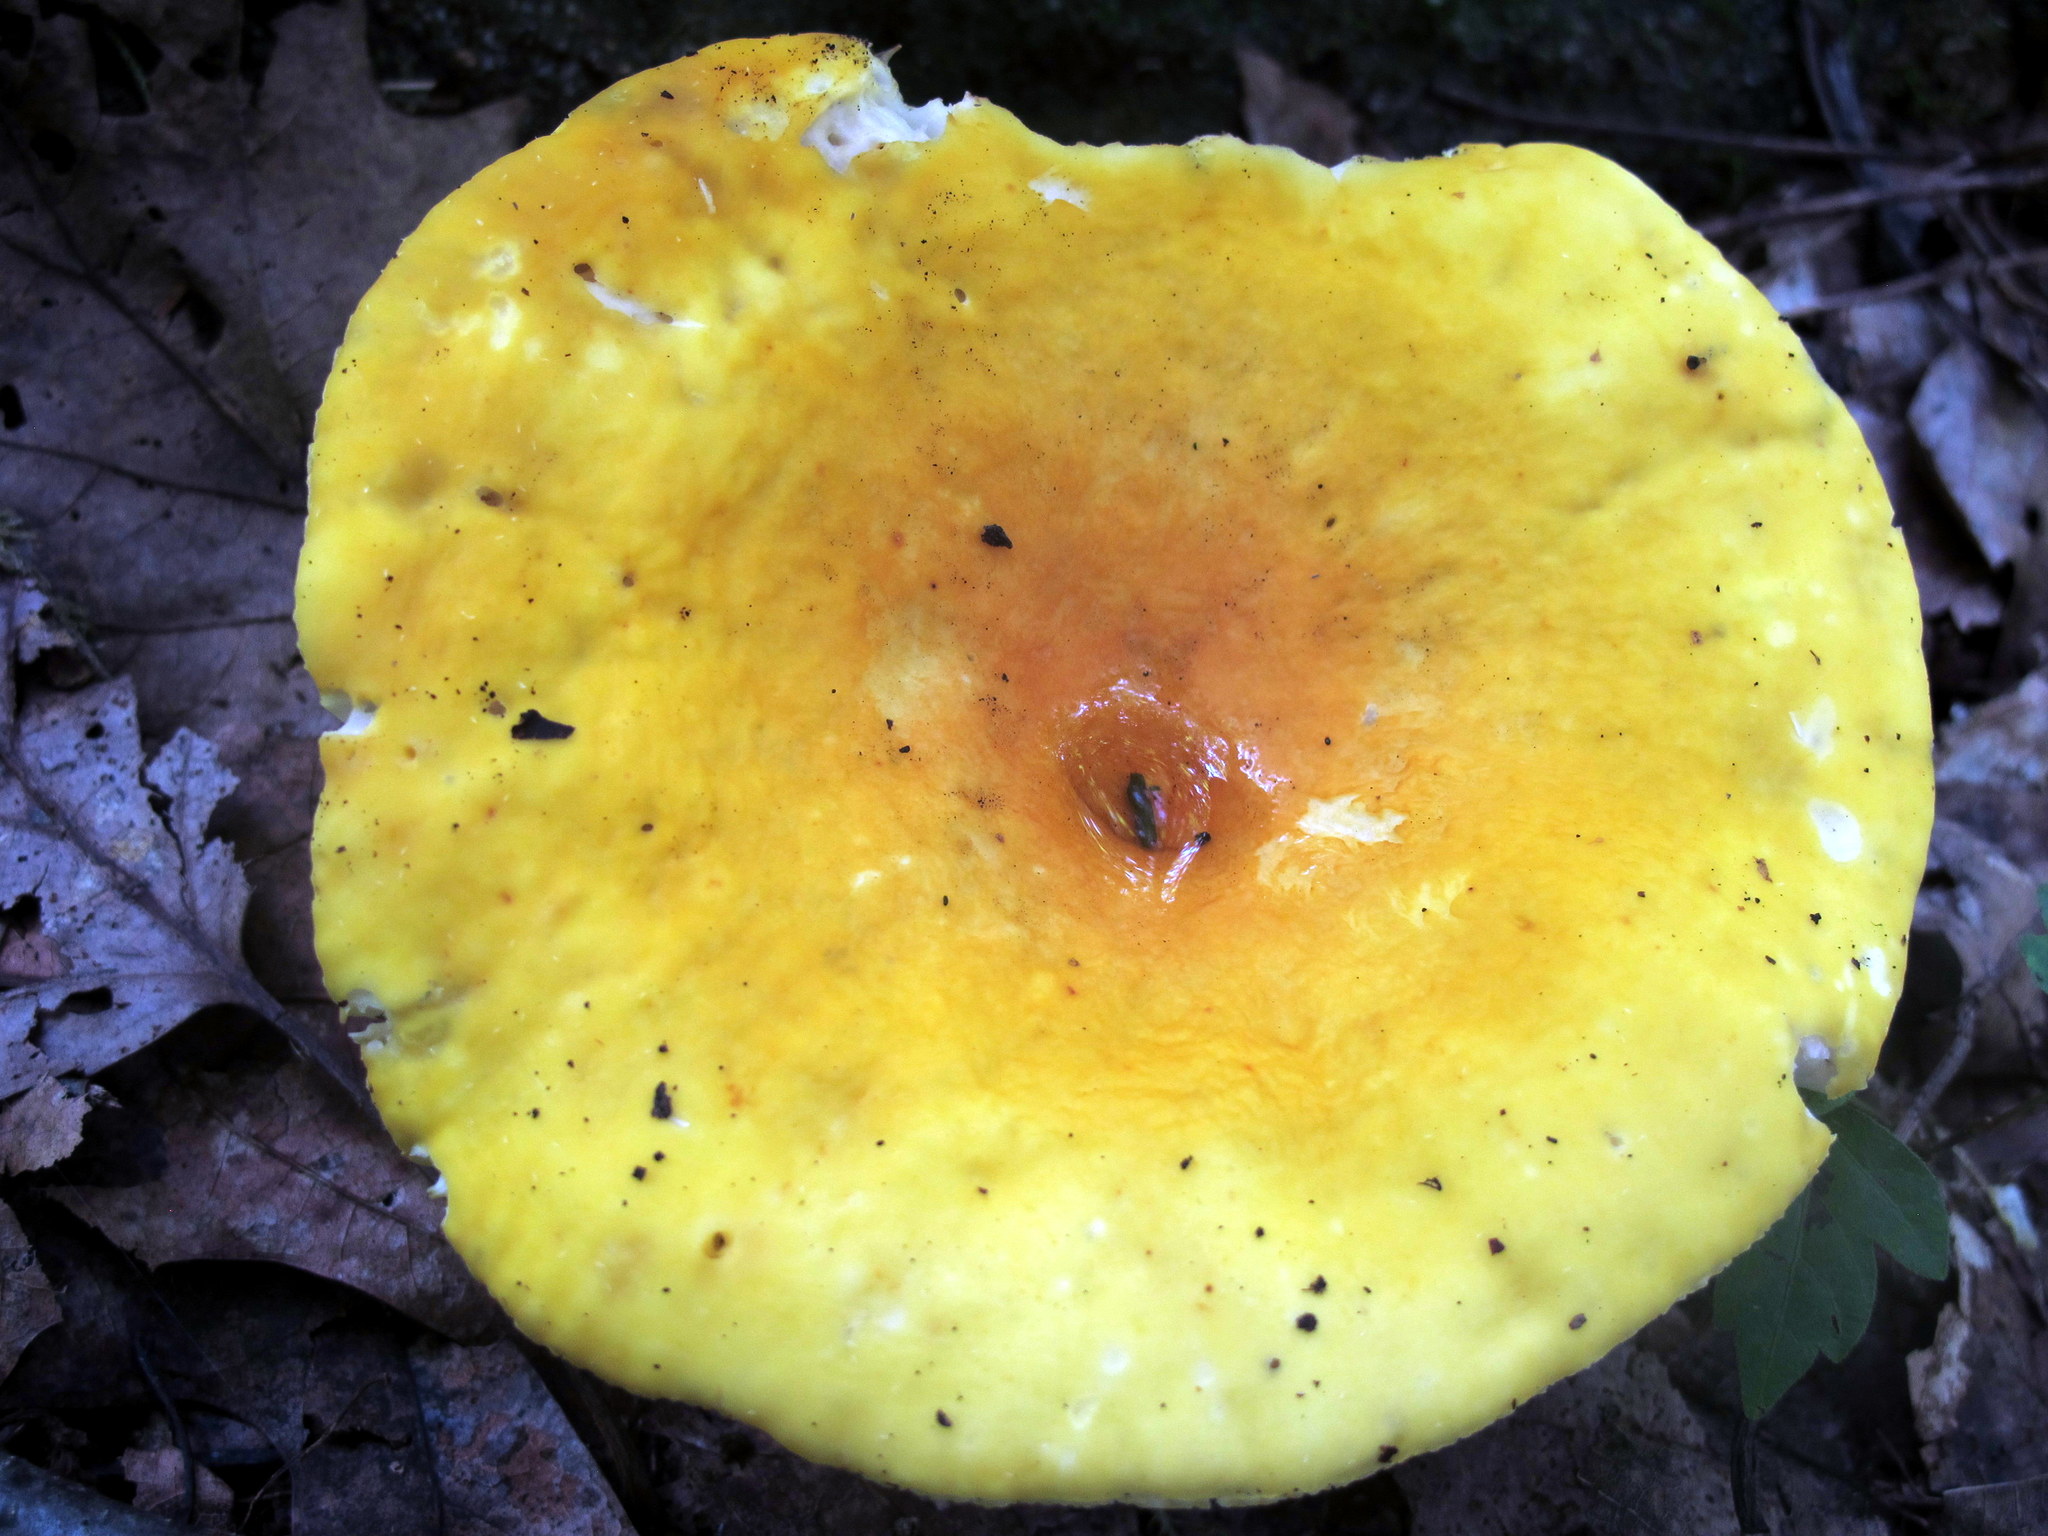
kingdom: Fungi
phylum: Basidiomycota
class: Agaricomycetes
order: Russulales
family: Russulaceae
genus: Russula
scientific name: Russula ochroleucoides
